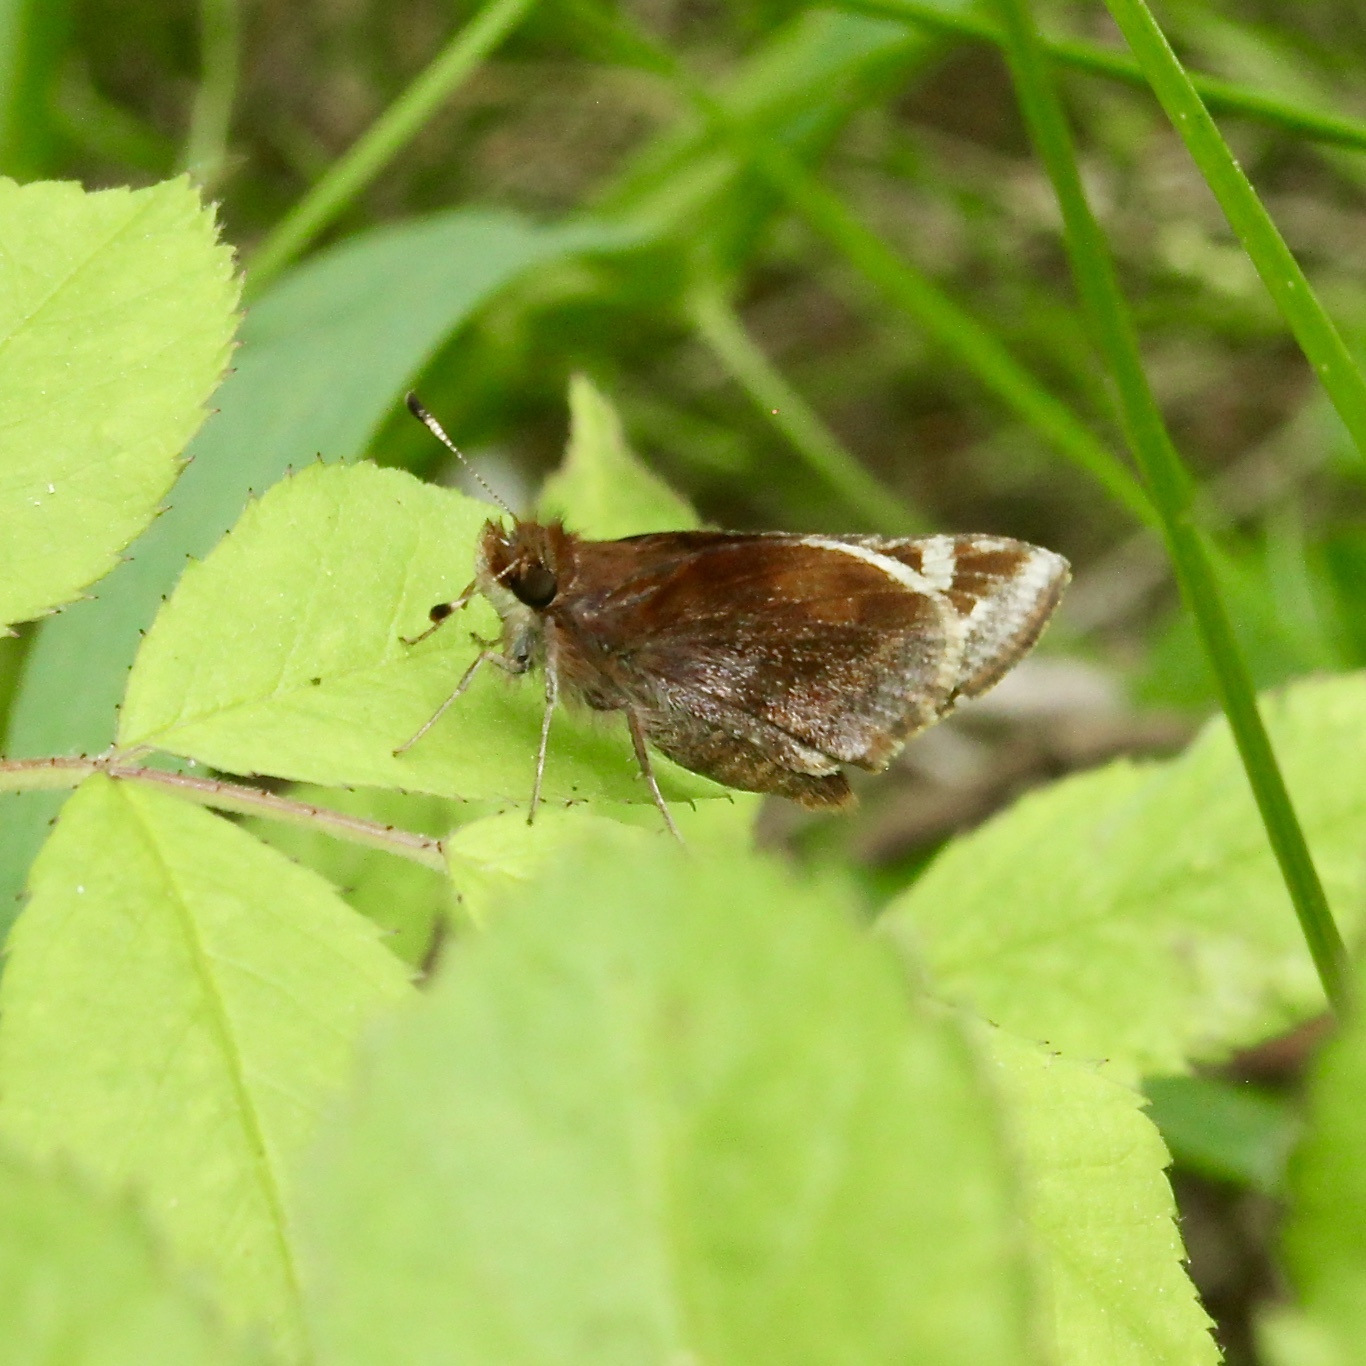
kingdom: Animalia
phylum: Arthropoda
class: Insecta
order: Lepidoptera
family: Hesperiidae
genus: Lon
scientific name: Lon zabulon
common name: Zabulon skipper
